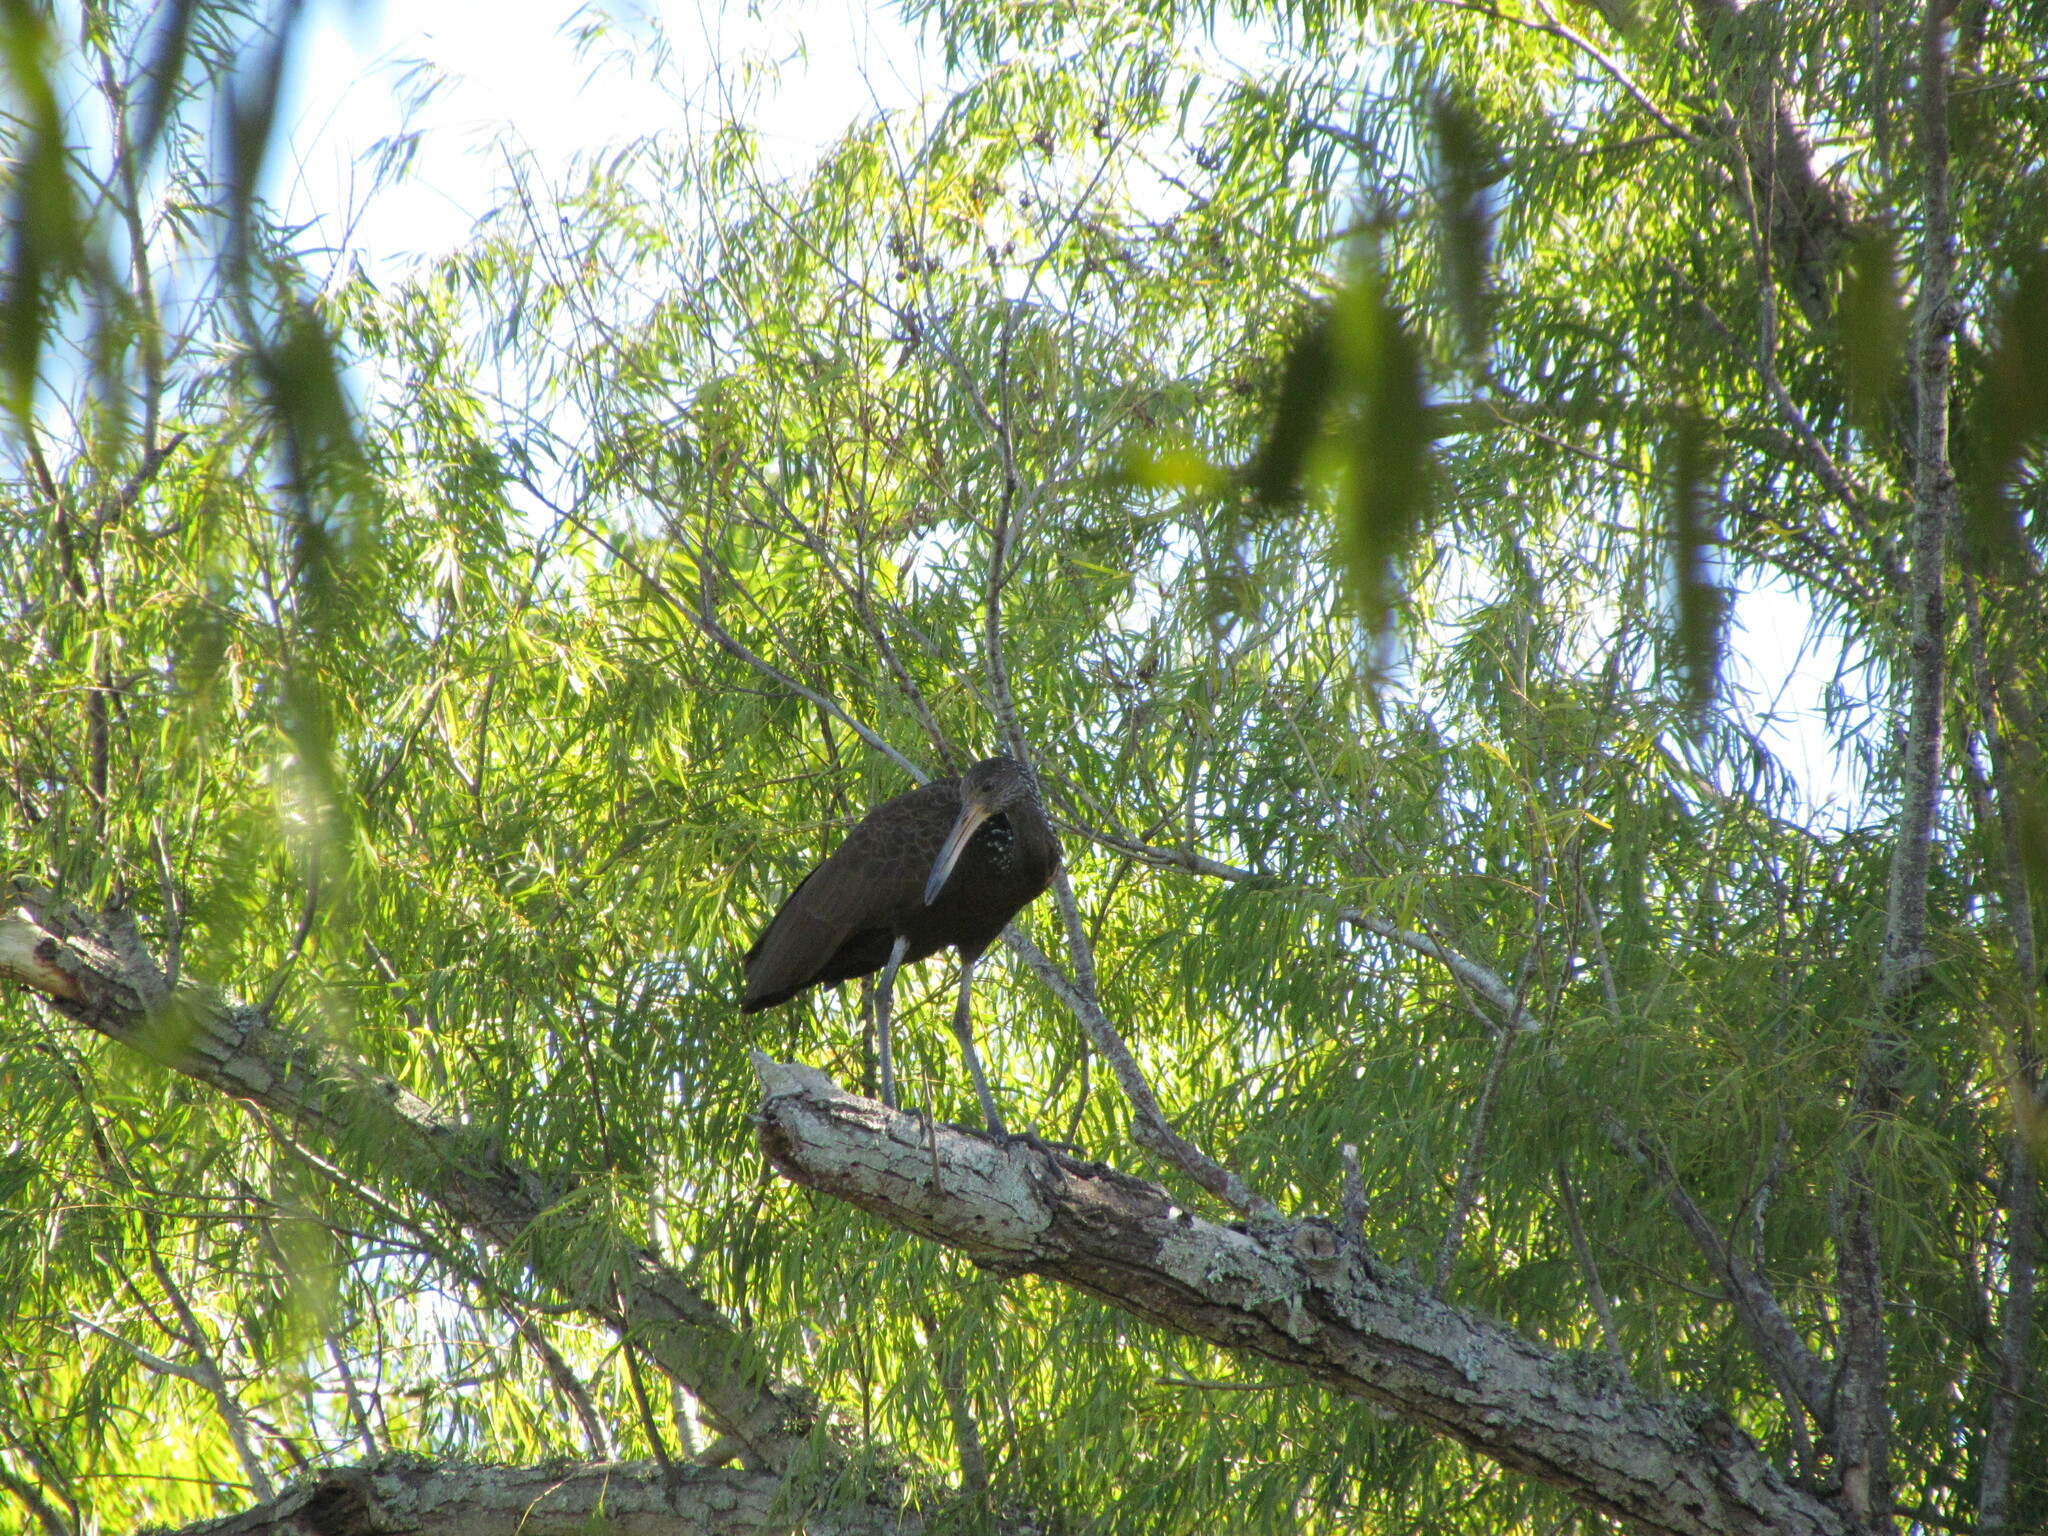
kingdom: Animalia
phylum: Chordata
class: Aves
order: Gruiformes
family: Aramidae
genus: Aramus
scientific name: Aramus guarauna
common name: Limpkin
